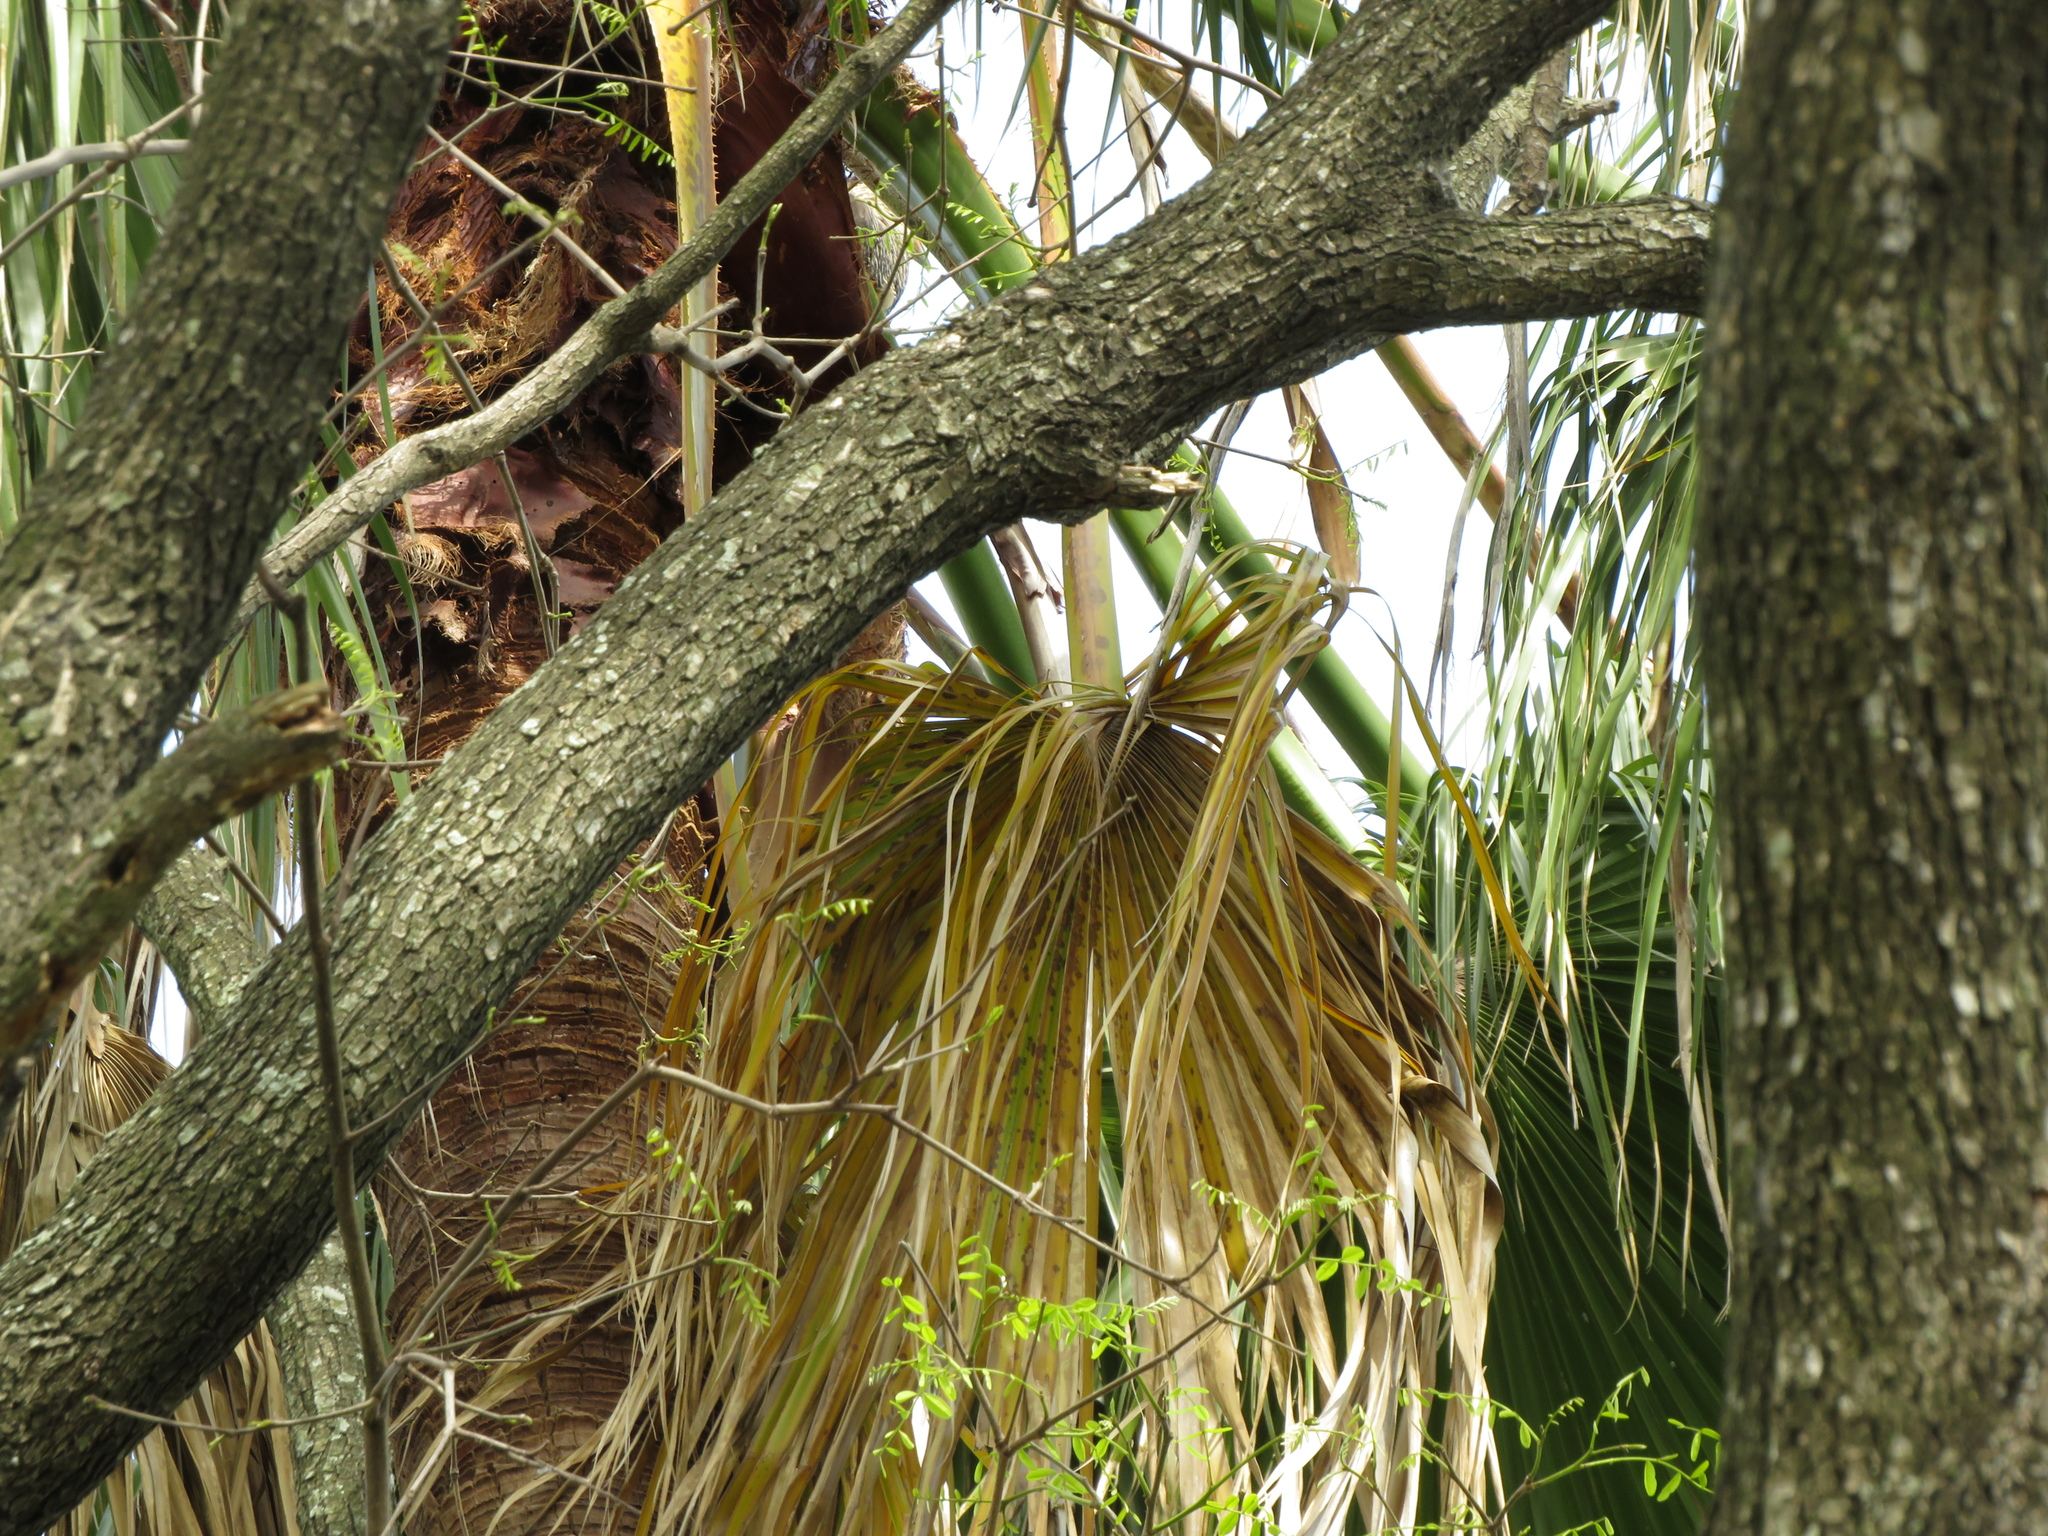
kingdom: Plantae
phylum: Tracheophyta
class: Liliopsida
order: Arecales
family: Arecaceae
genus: Washingtonia
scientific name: Washingtonia robusta
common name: Mexican fan palm
